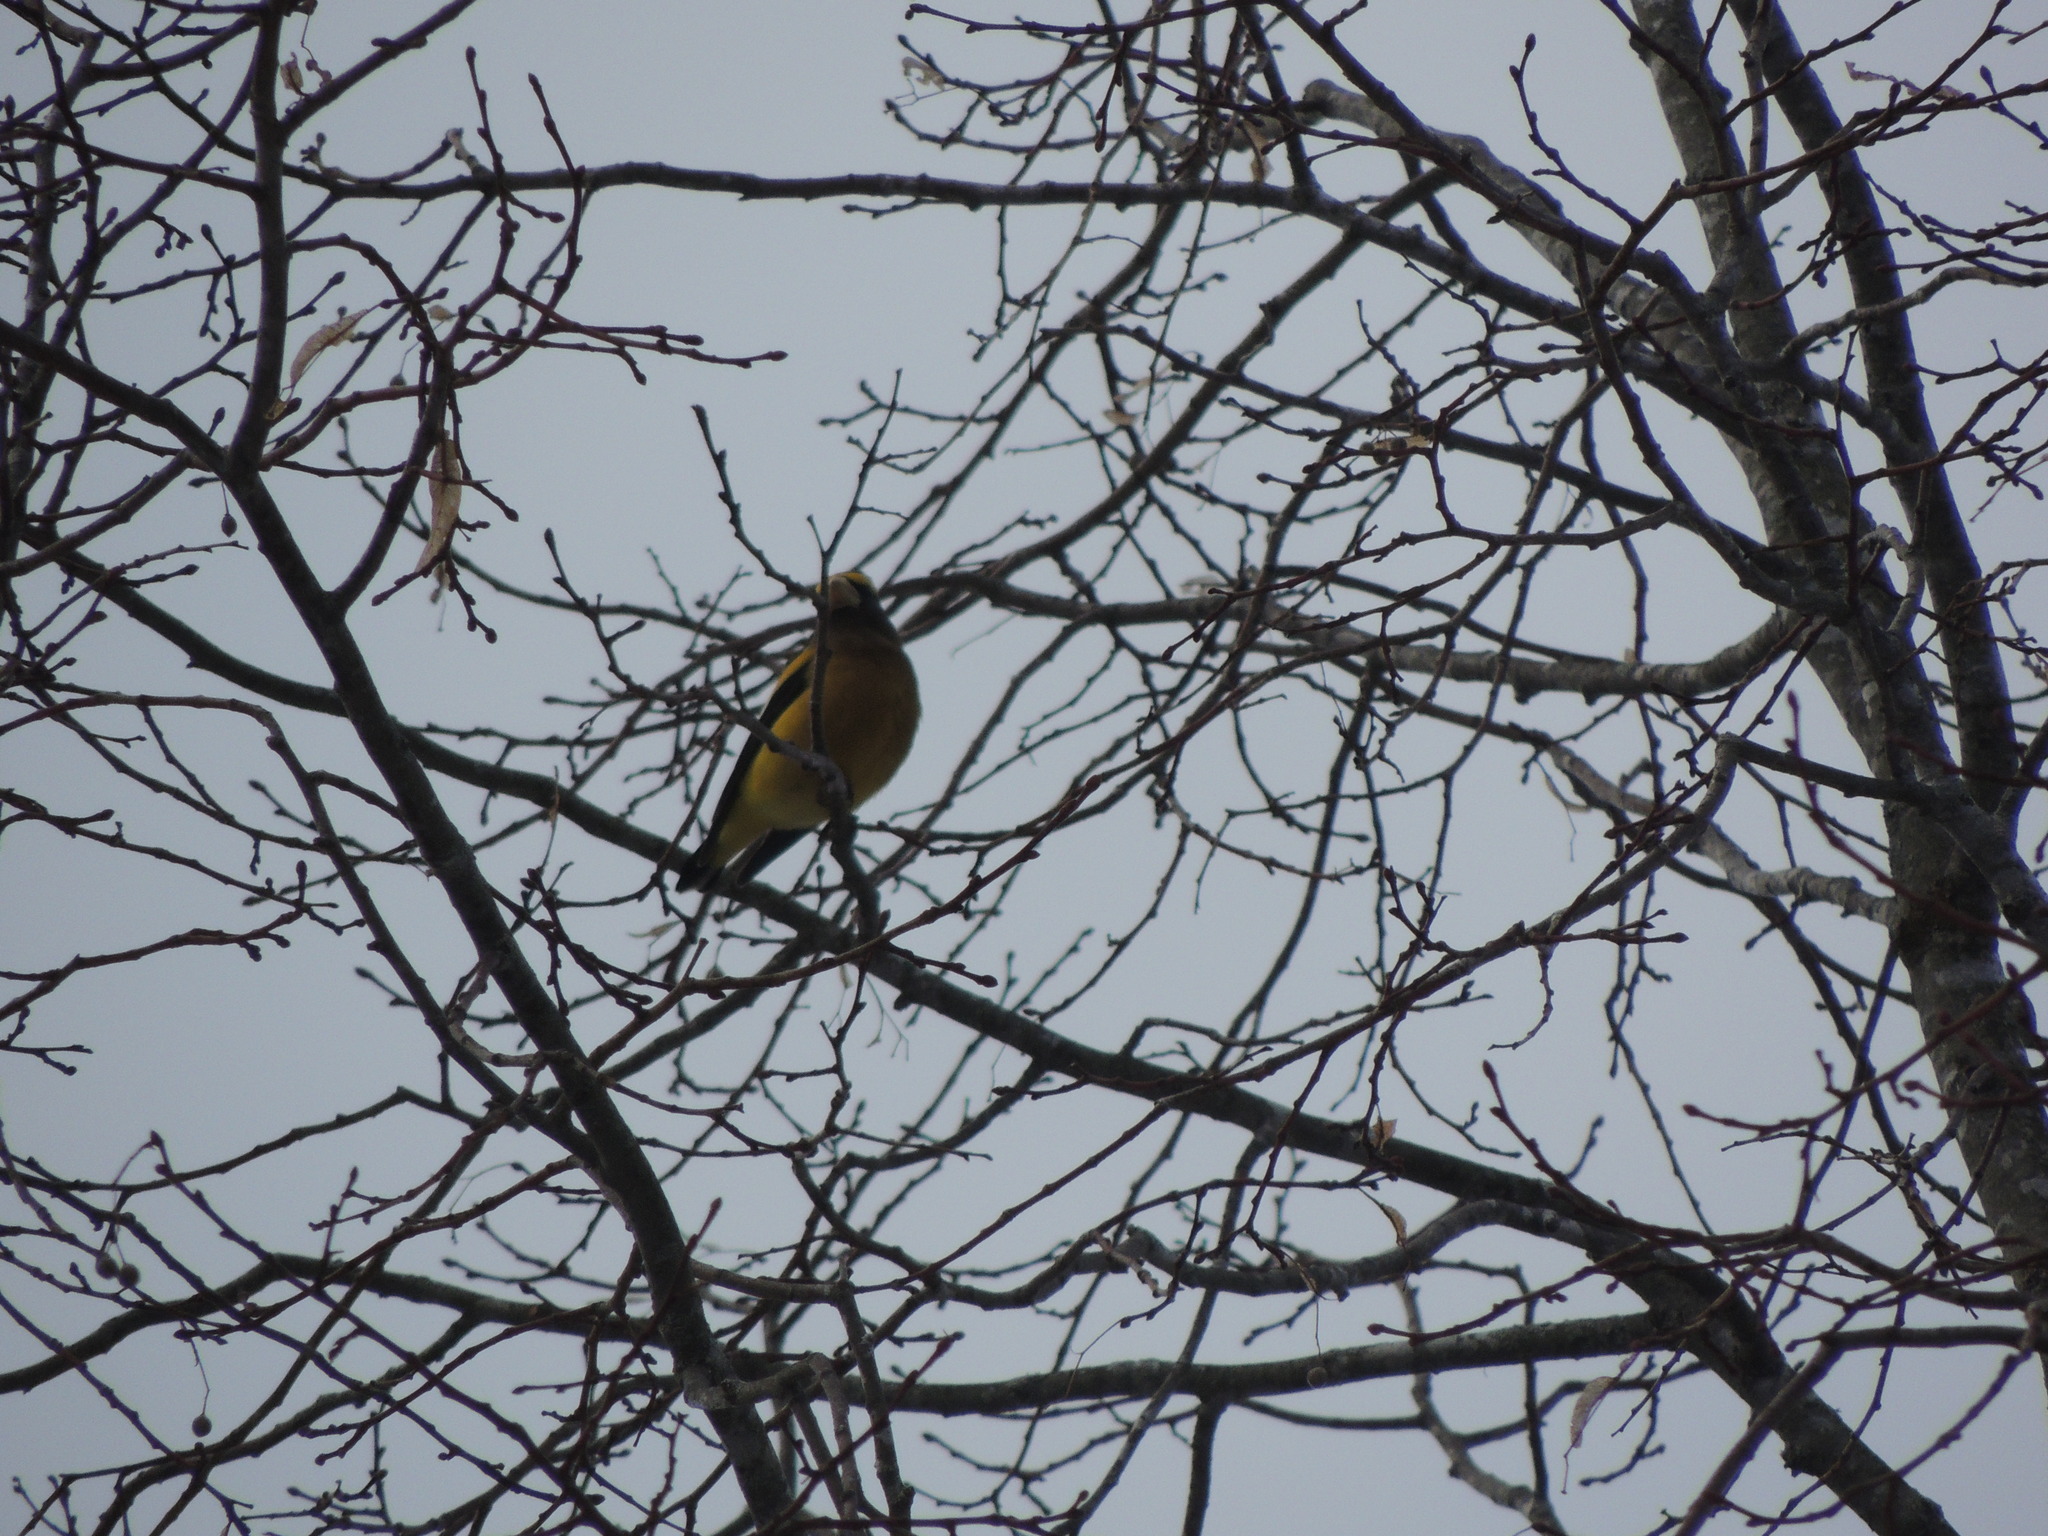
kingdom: Animalia
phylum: Chordata
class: Aves
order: Passeriformes
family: Fringillidae
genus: Hesperiphona
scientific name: Hesperiphona vespertina
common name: Evening grosbeak
